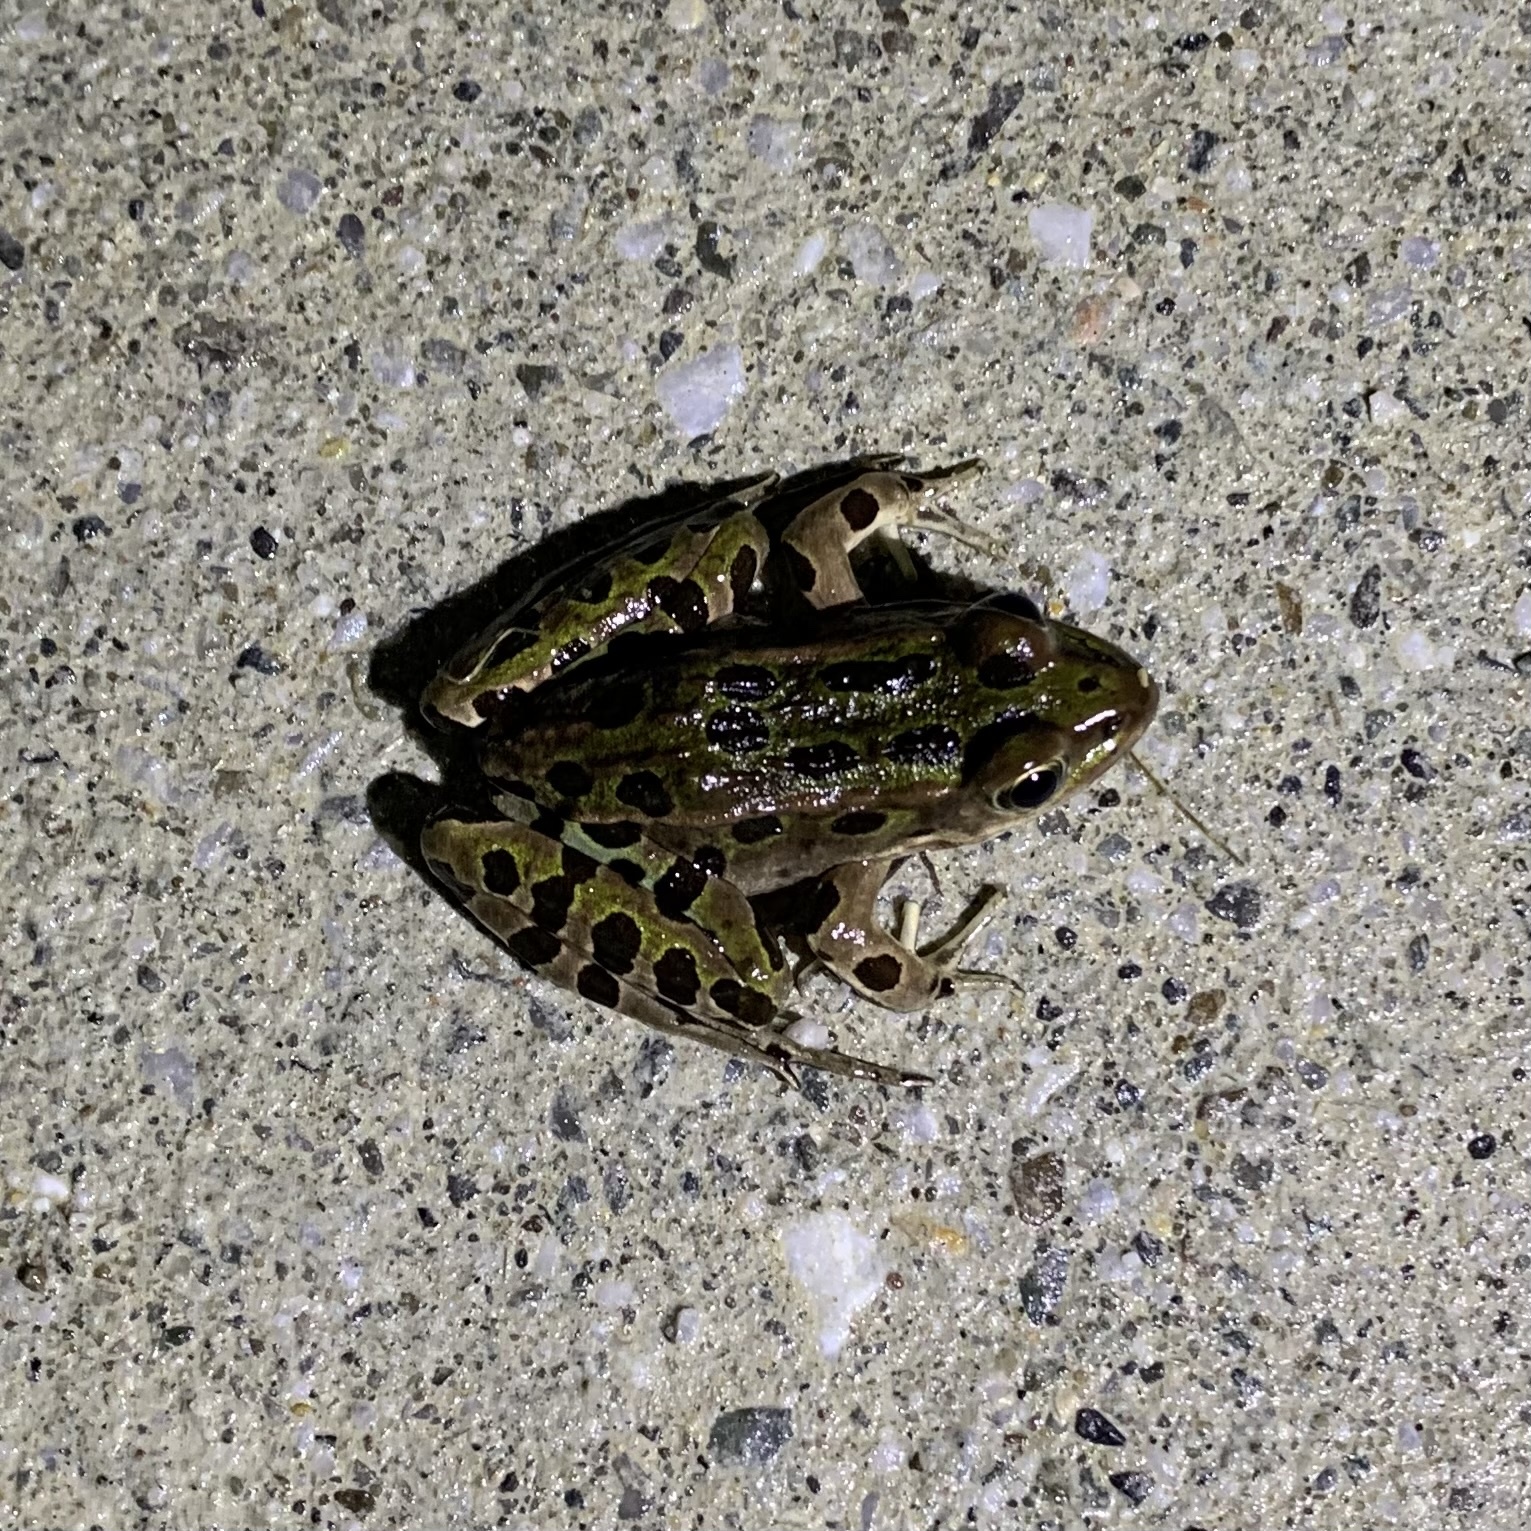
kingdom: Animalia
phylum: Chordata
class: Amphibia
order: Anura
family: Ranidae
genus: Lithobates
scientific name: Lithobates pipiens
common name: Northern leopard frog
